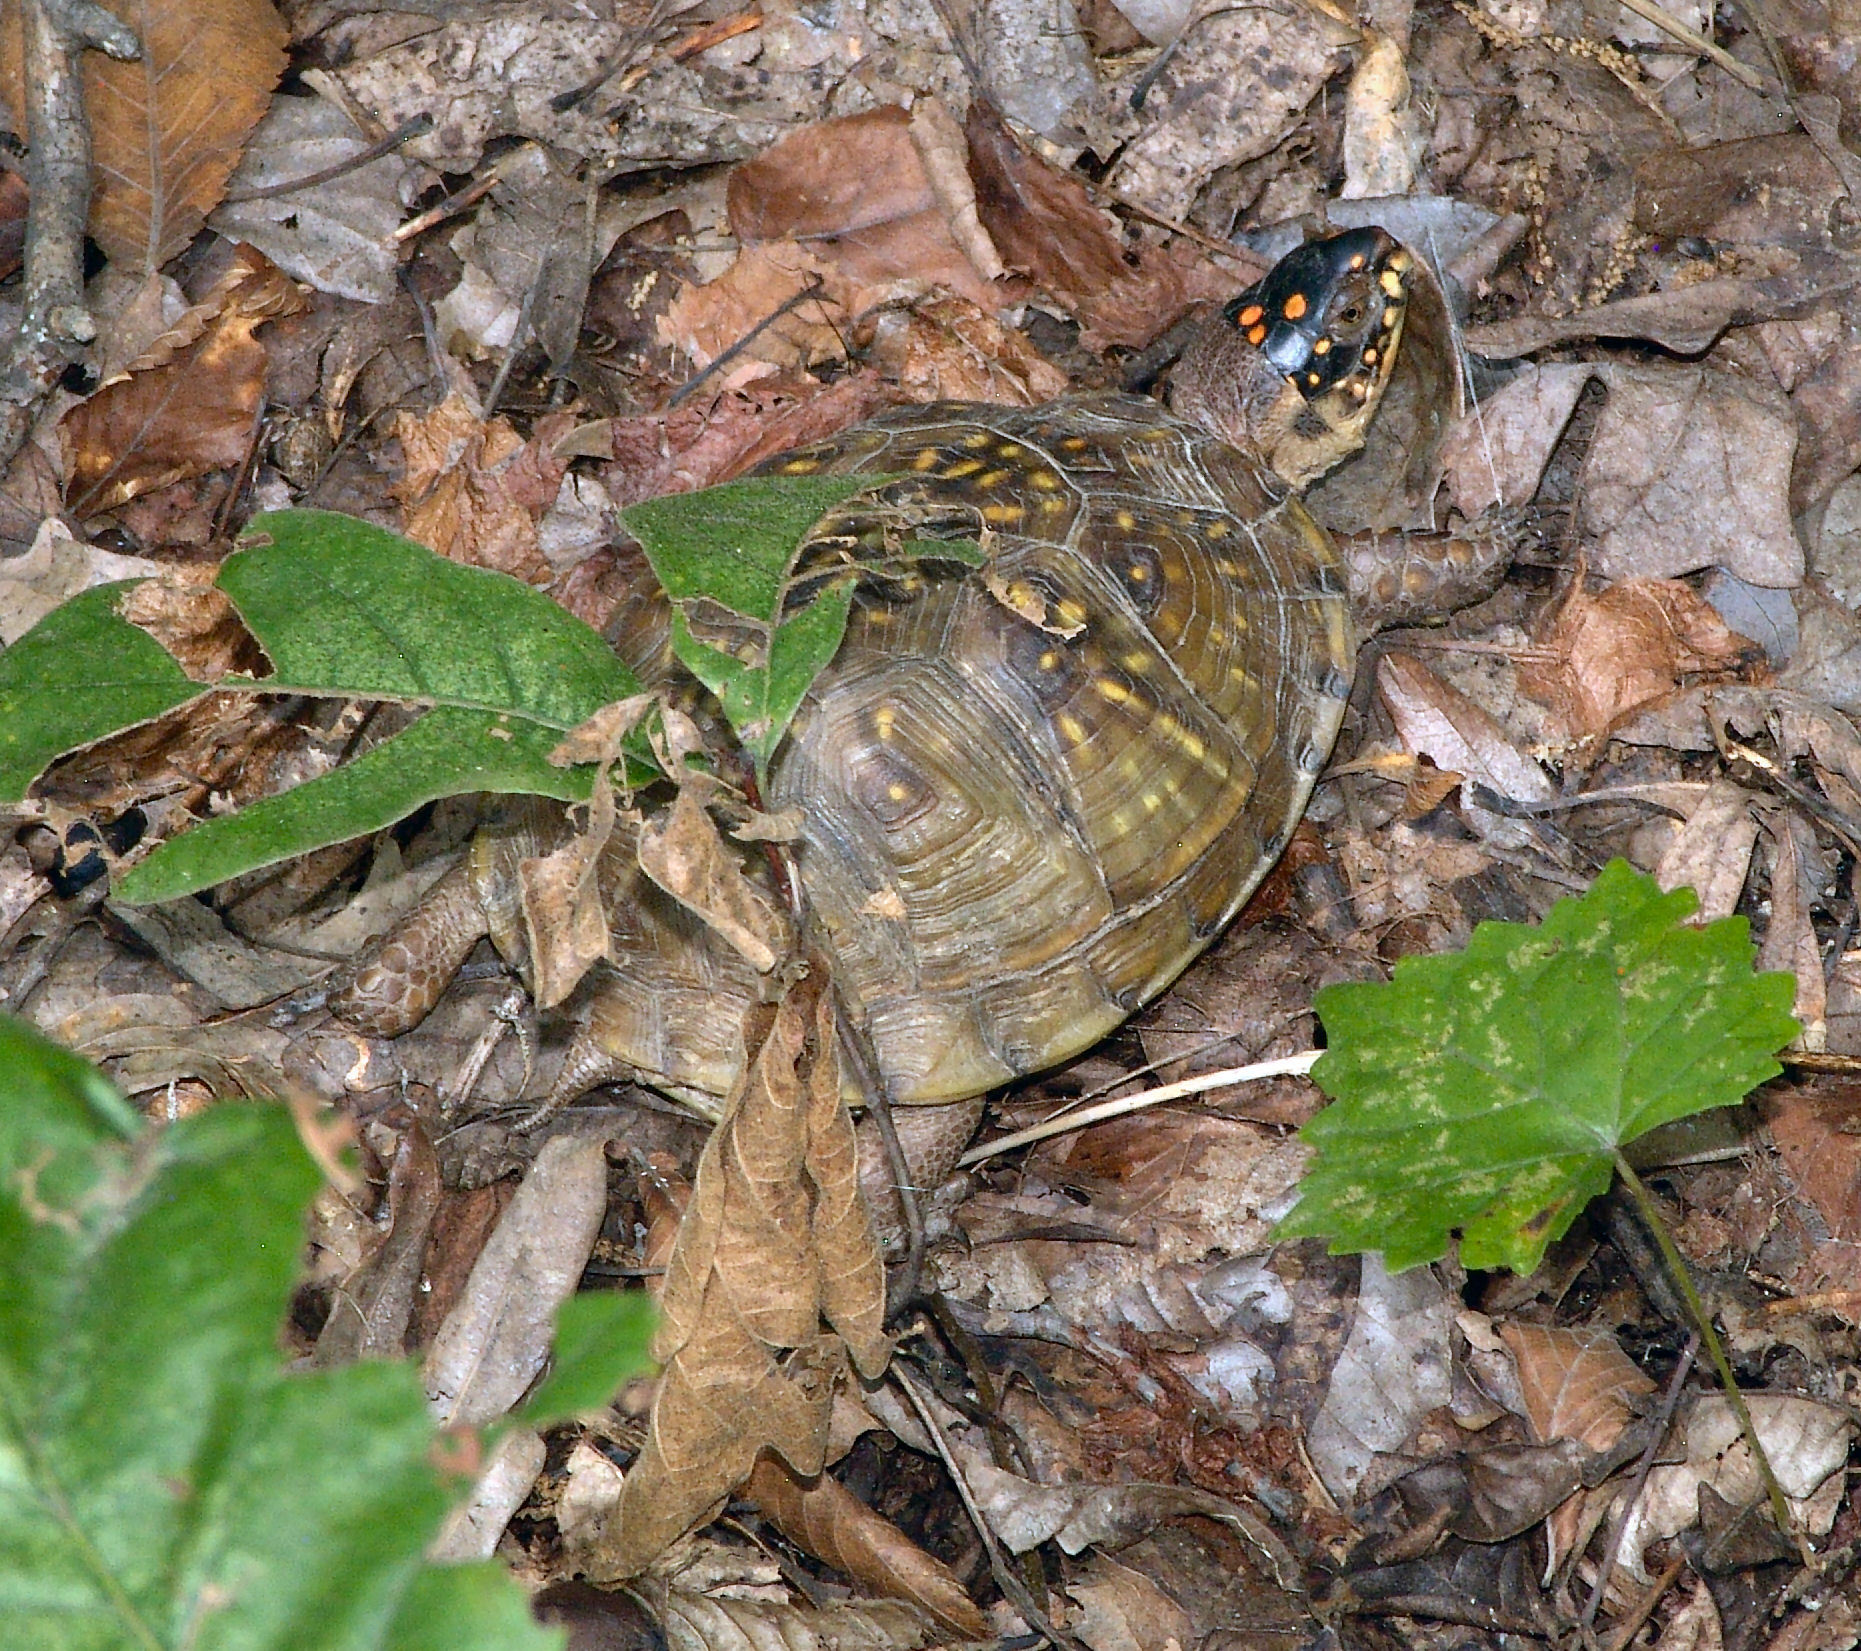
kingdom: Animalia
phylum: Chordata
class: Testudines
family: Emydidae
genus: Terrapene
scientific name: Terrapene carolina
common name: Common box turtle
